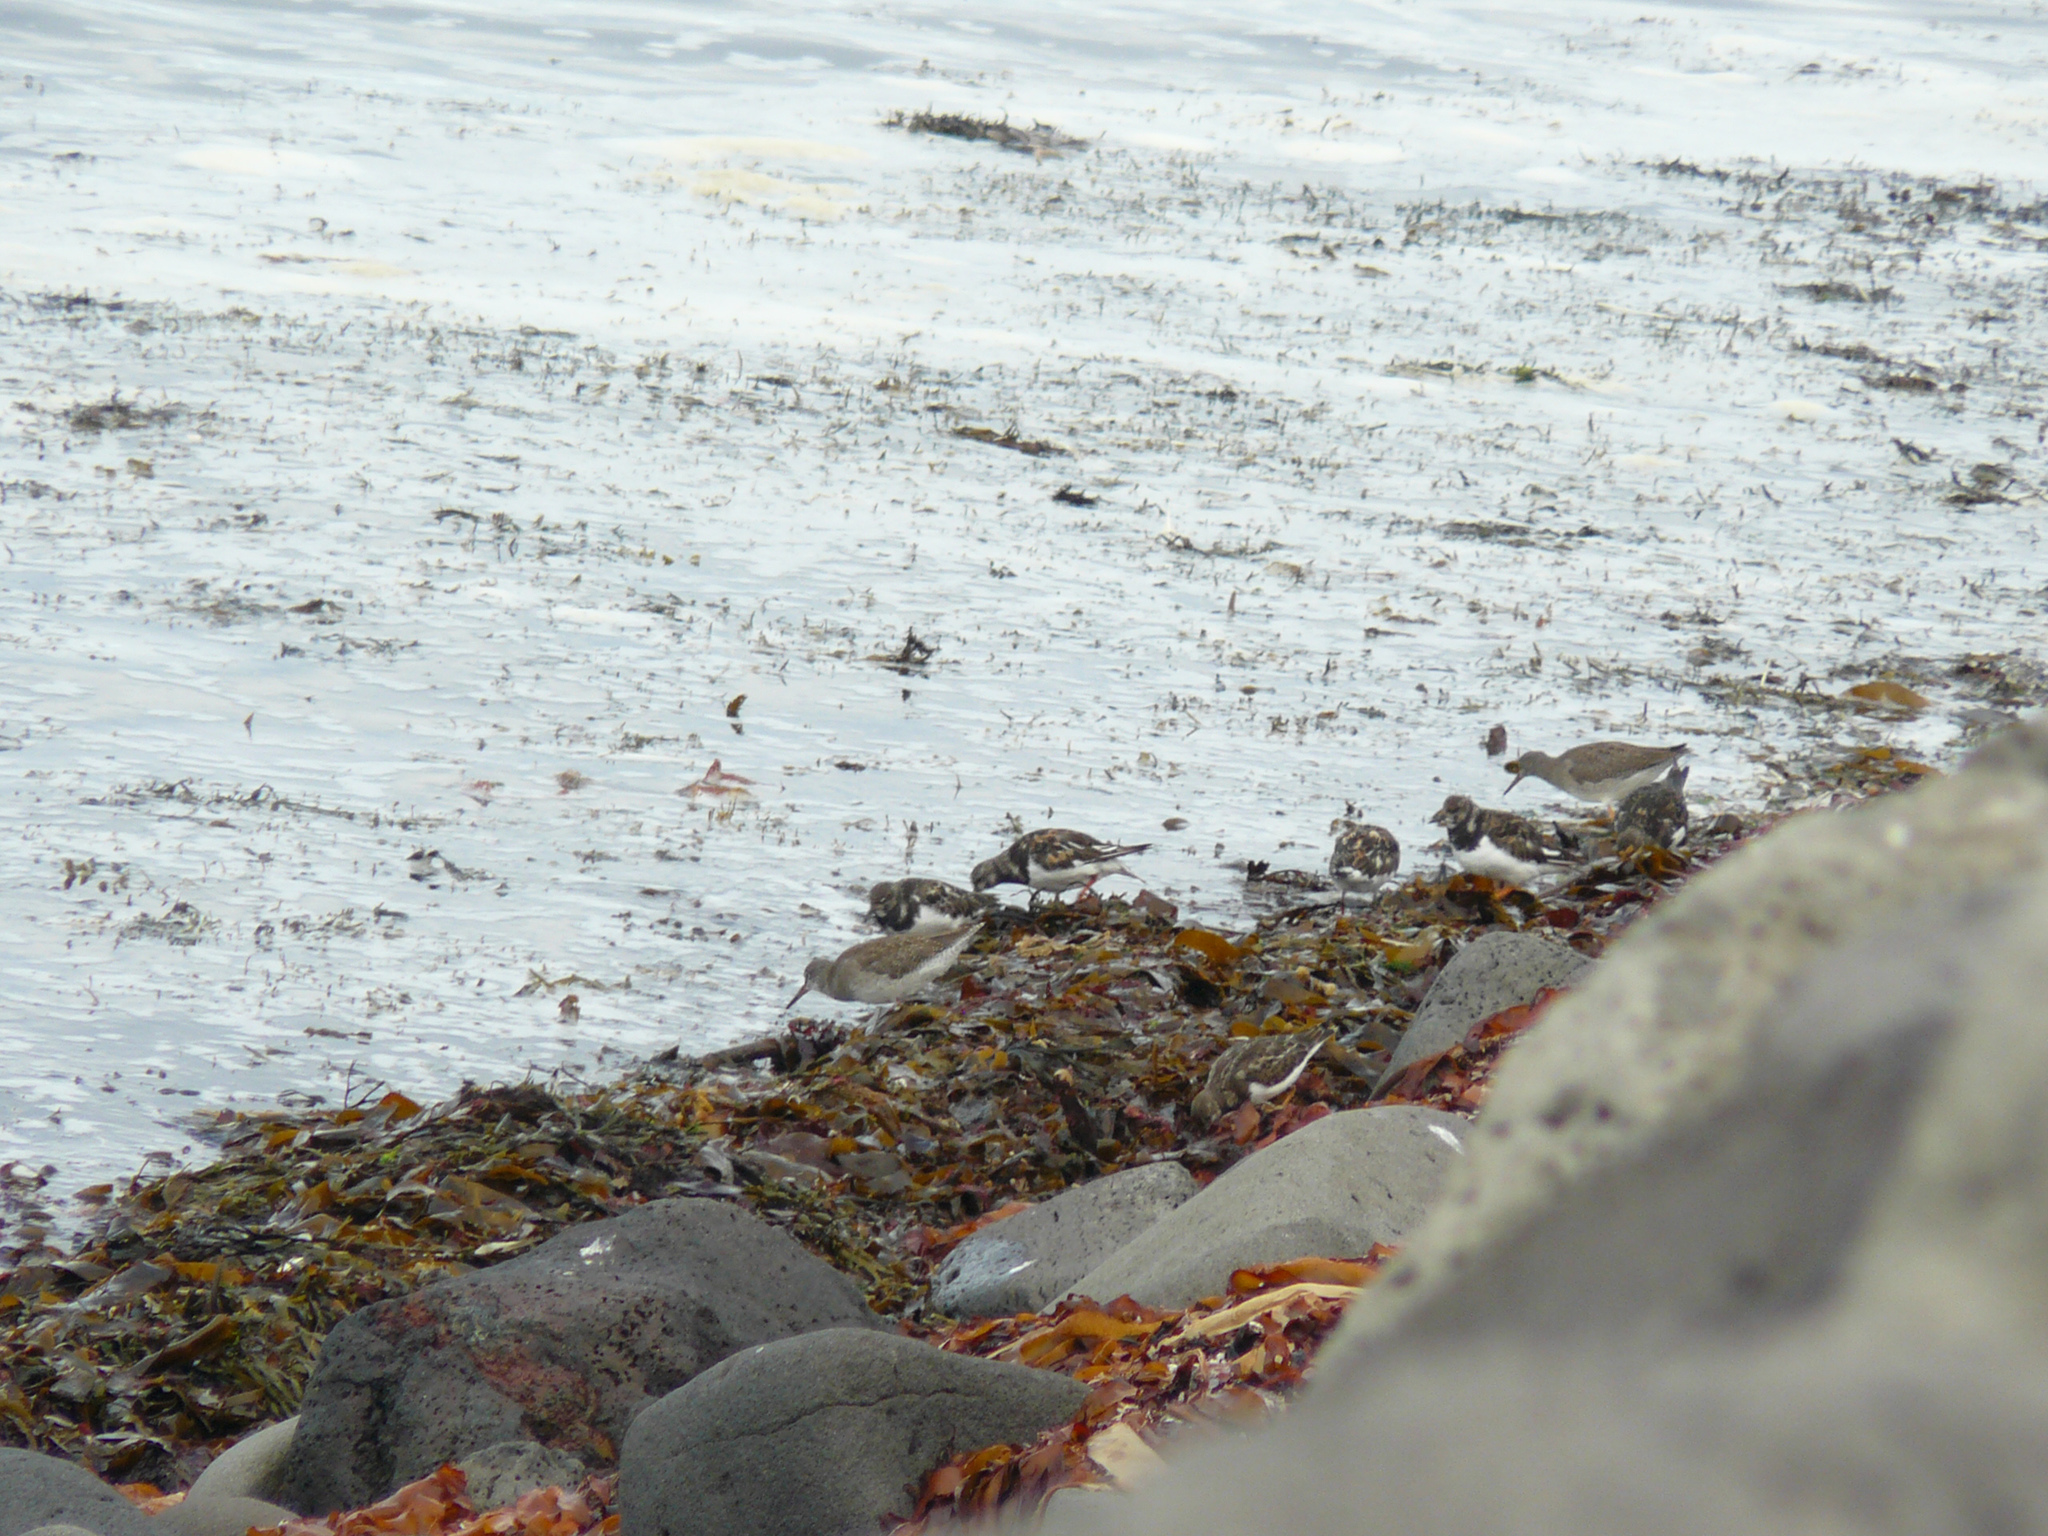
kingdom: Animalia
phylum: Chordata
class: Aves
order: Charadriiformes
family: Scolopacidae
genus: Arenaria
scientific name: Arenaria interpres
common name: Ruddy turnstone
